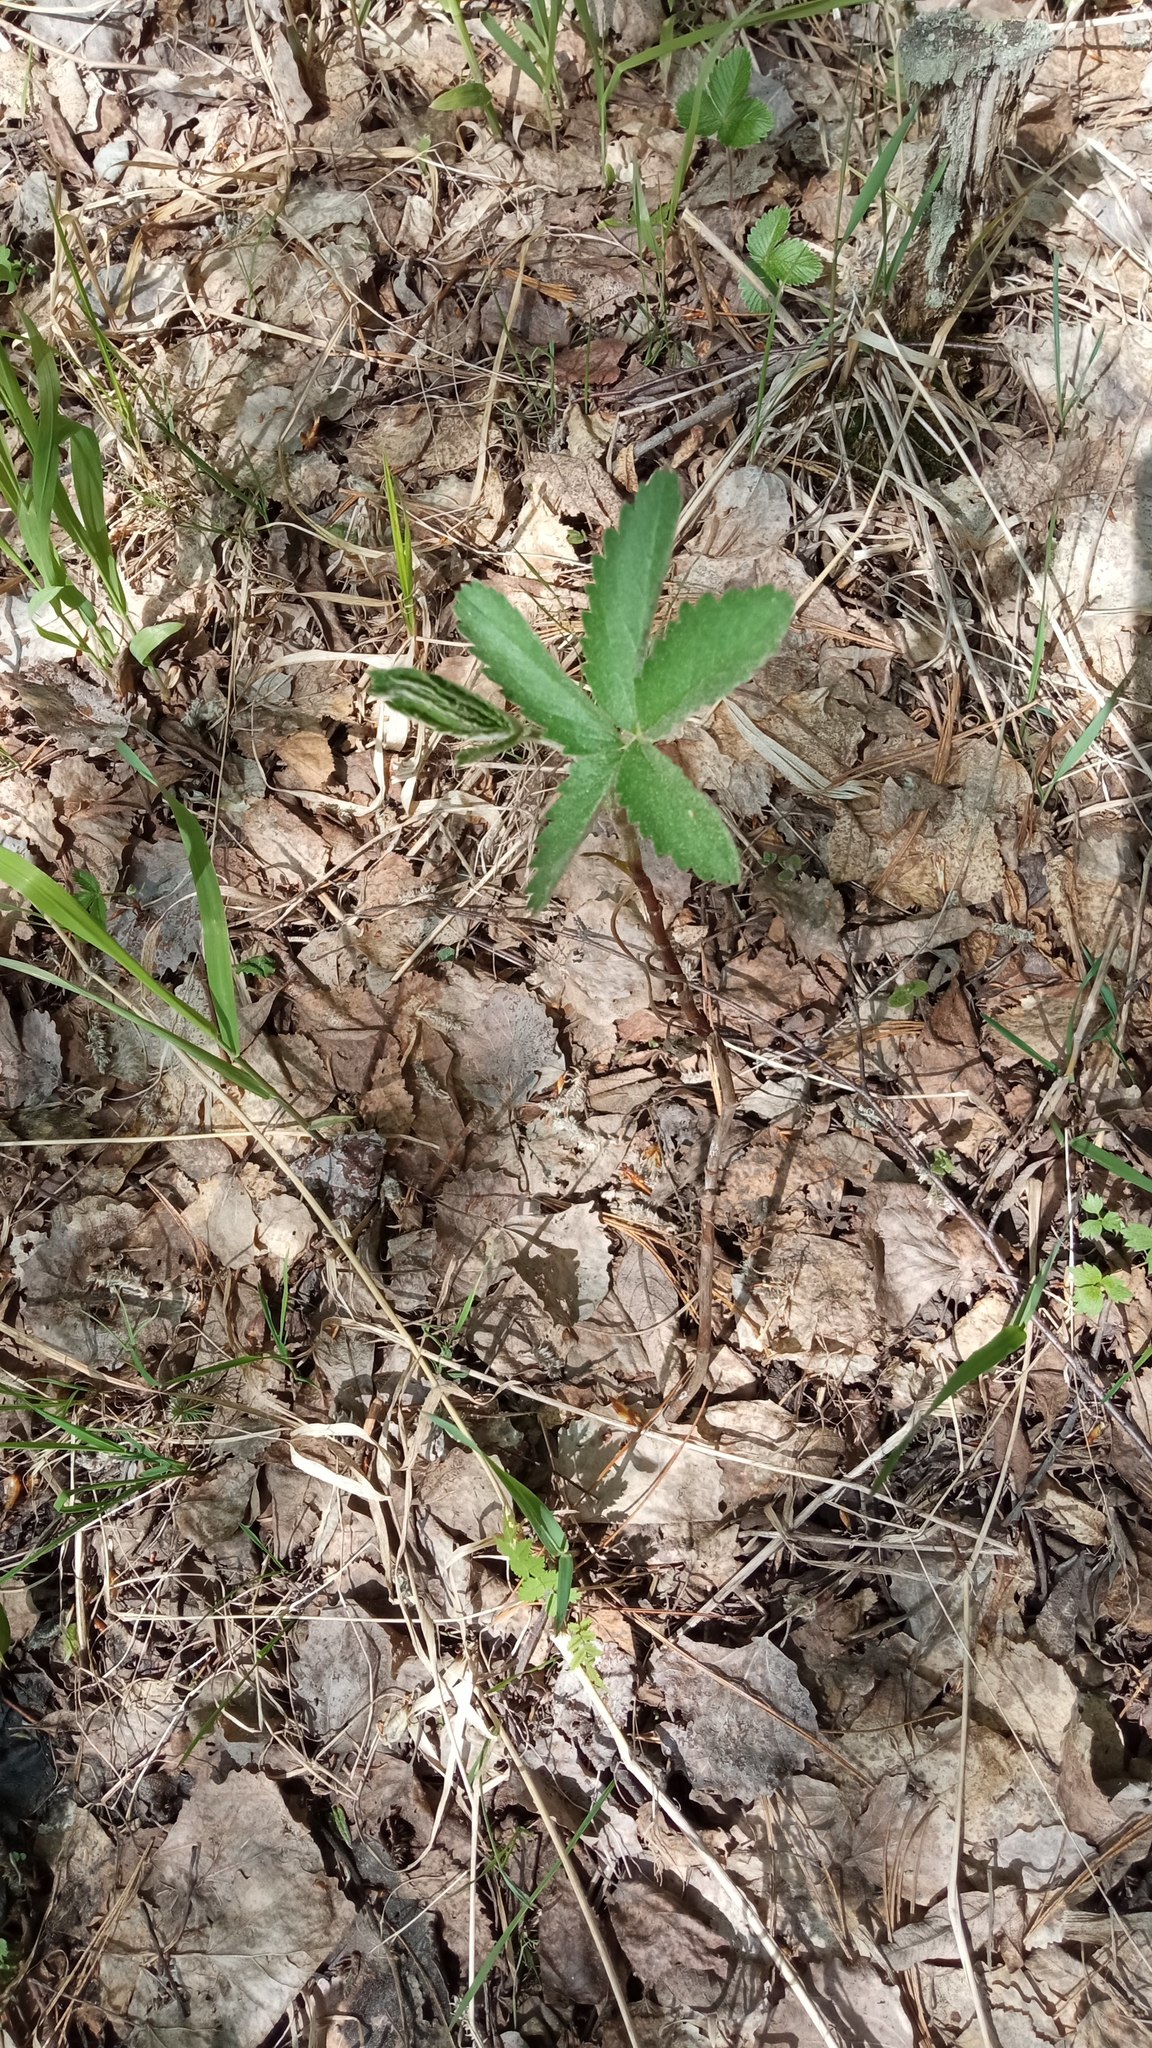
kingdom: Plantae
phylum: Tracheophyta
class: Magnoliopsida
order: Rosales
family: Rosaceae
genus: Comarum
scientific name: Comarum palustre
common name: Marsh cinquefoil
